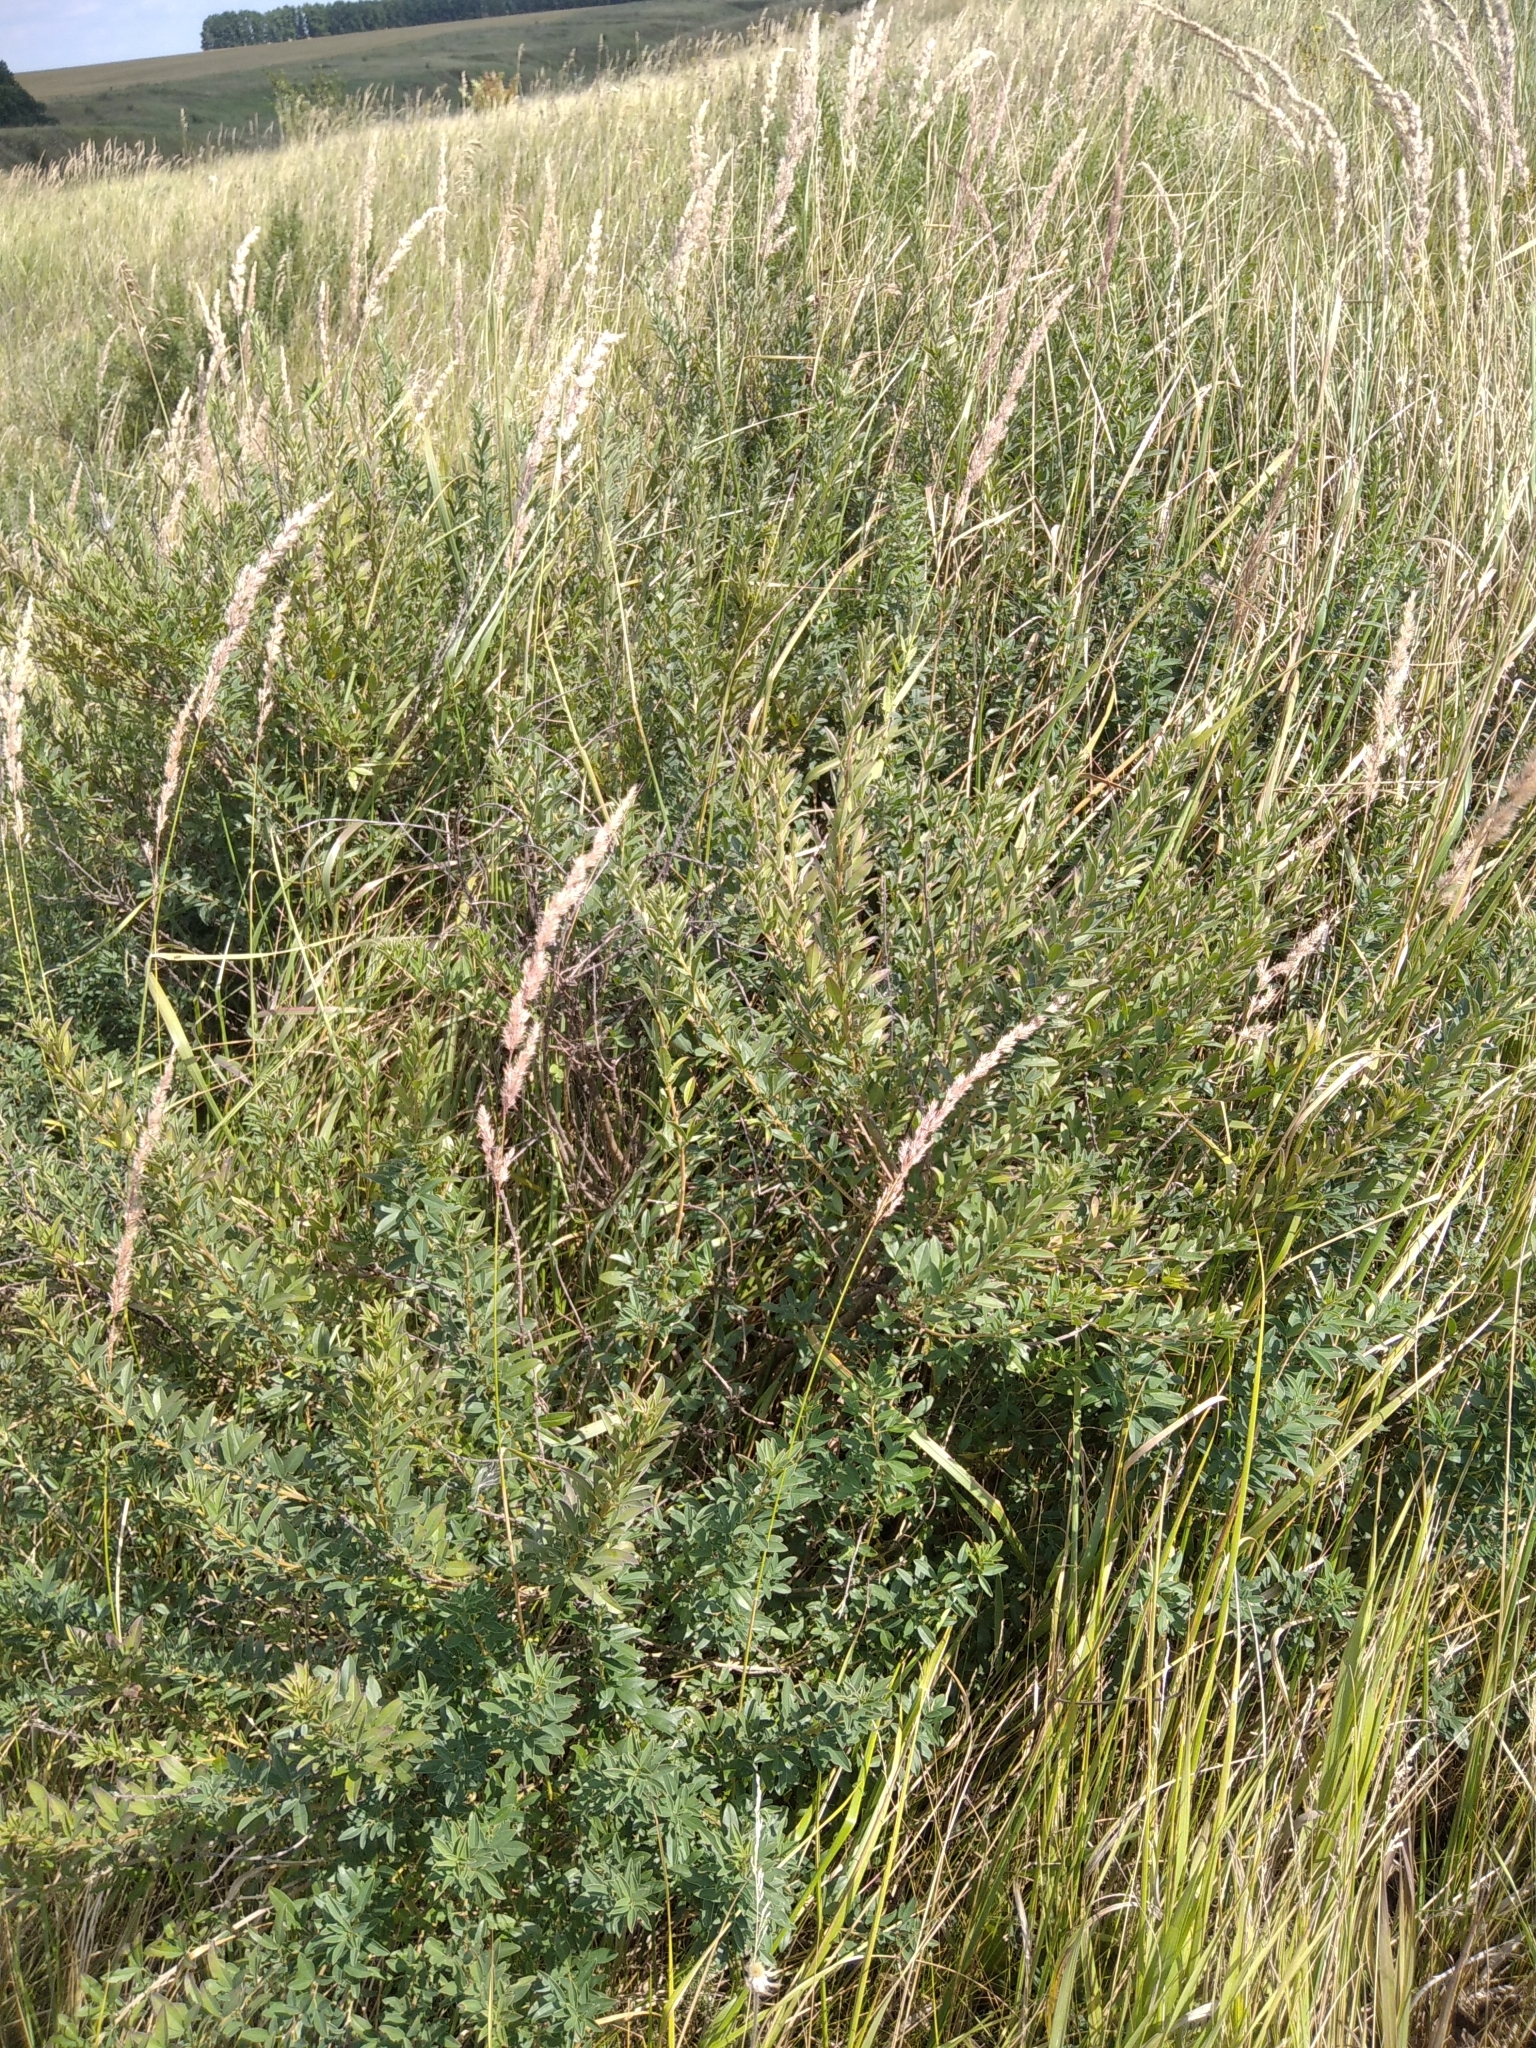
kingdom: Plantae
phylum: Tracheophyta
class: Magnoliopsida
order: Fabales
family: Fabaceae
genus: Chamaecytisus
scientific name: Chamaecytisus ruthenicus
